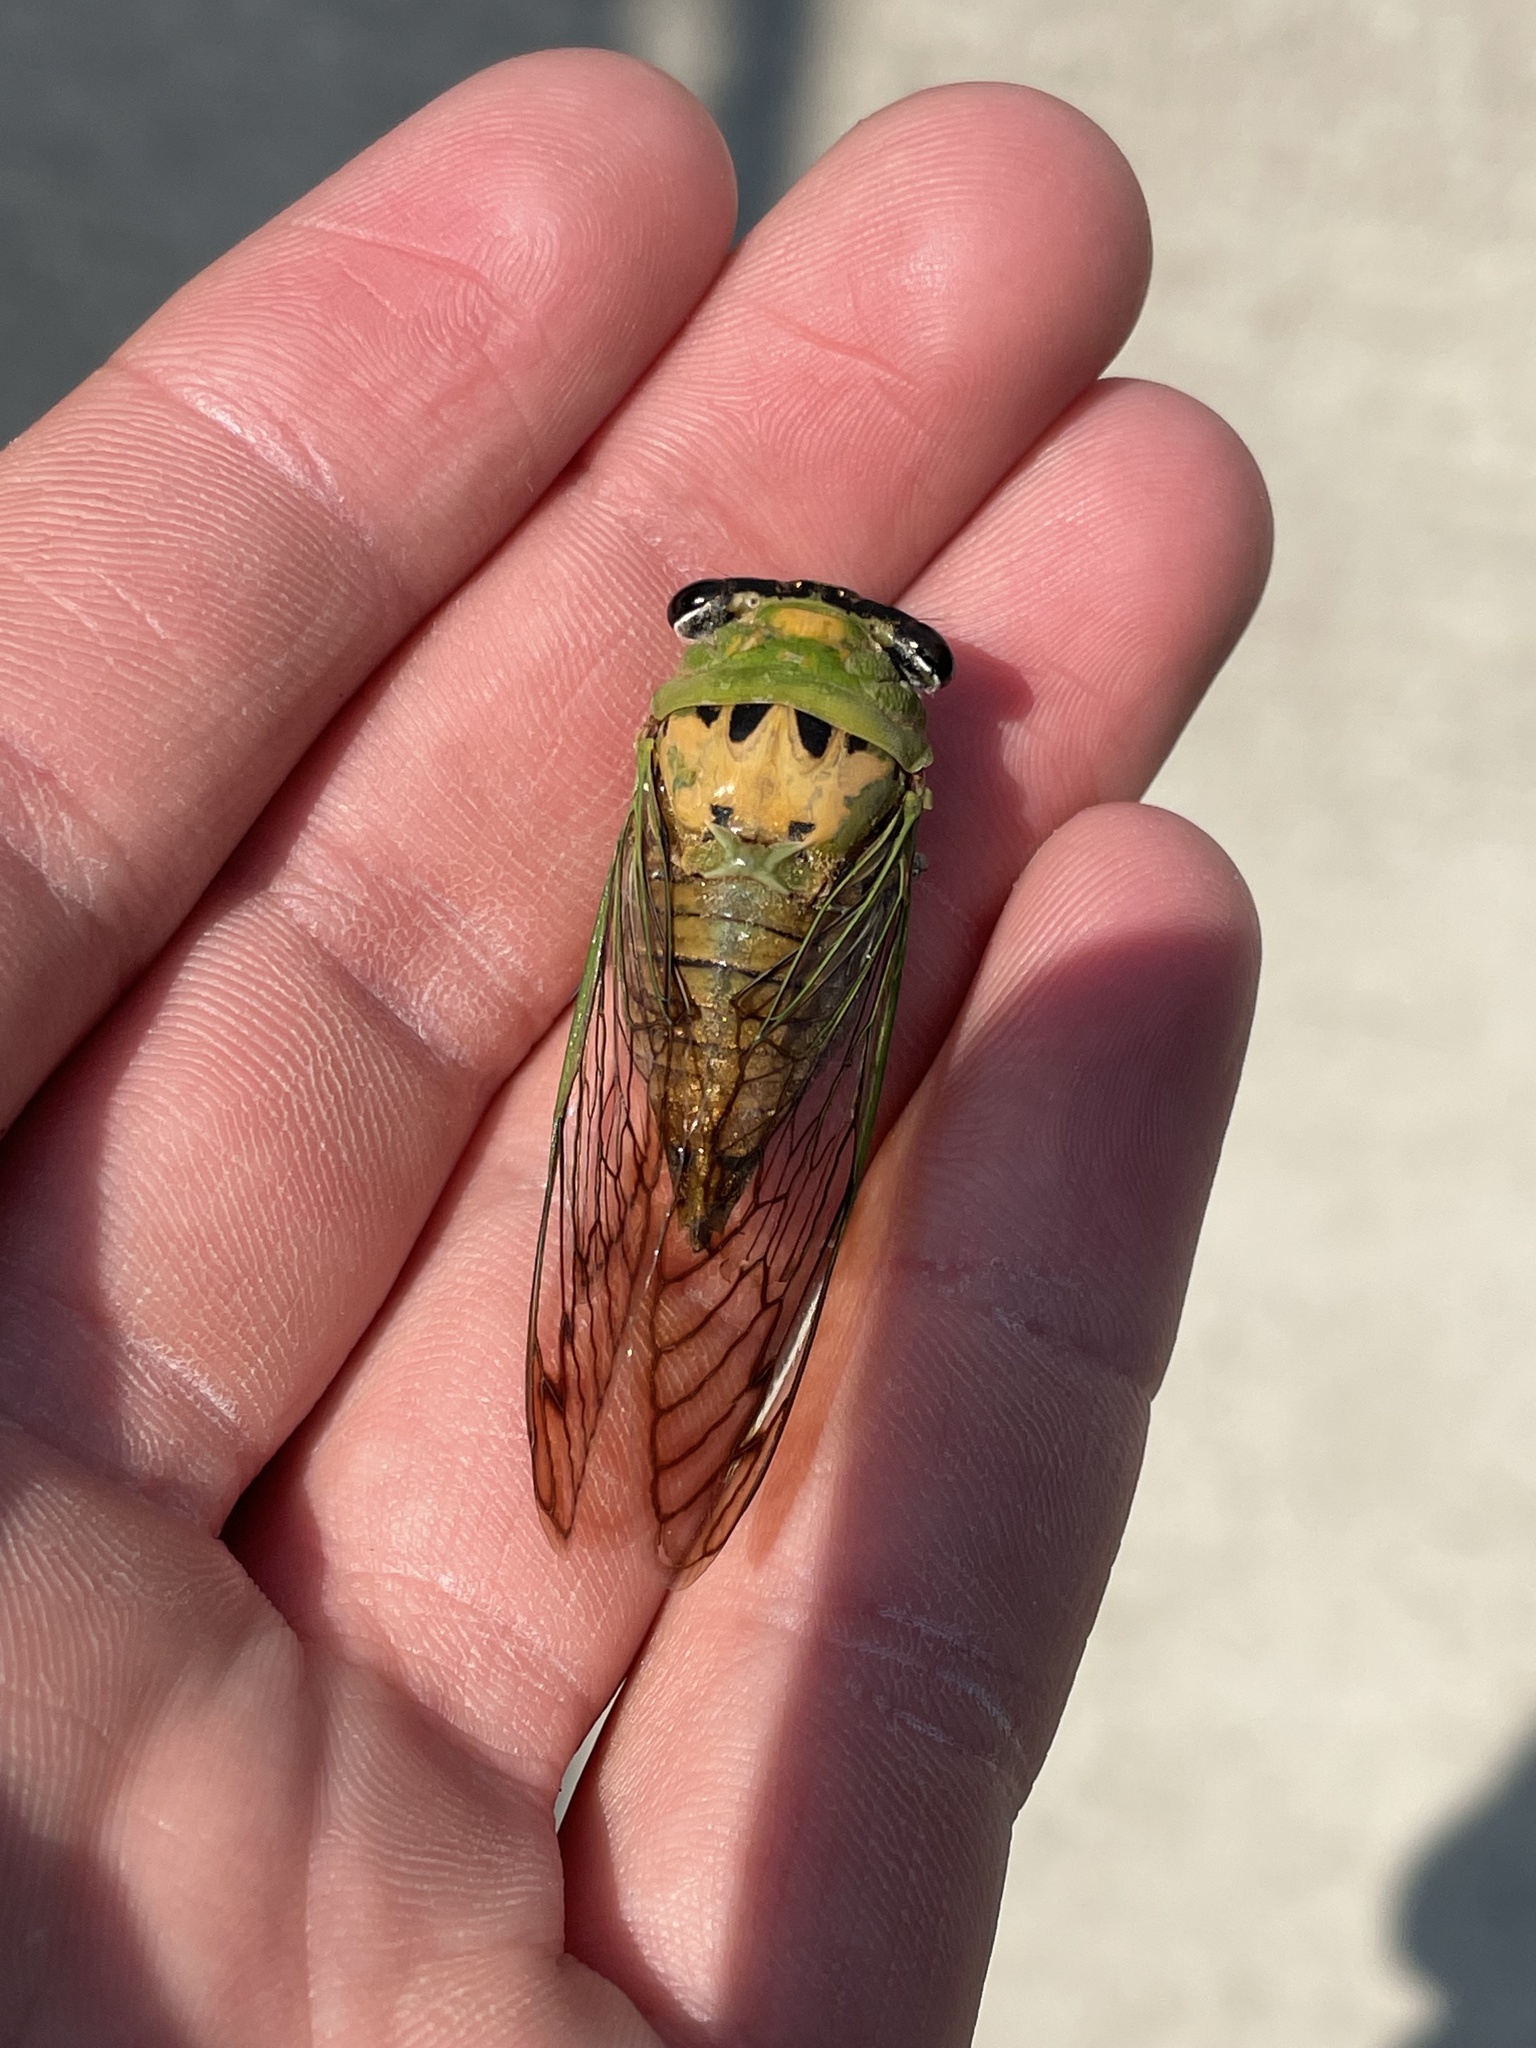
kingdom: Animalia
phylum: Arthropoda
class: Insecta
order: Hemiptera
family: Cicadidae
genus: Neotibicen
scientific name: Neotibicen superbus
